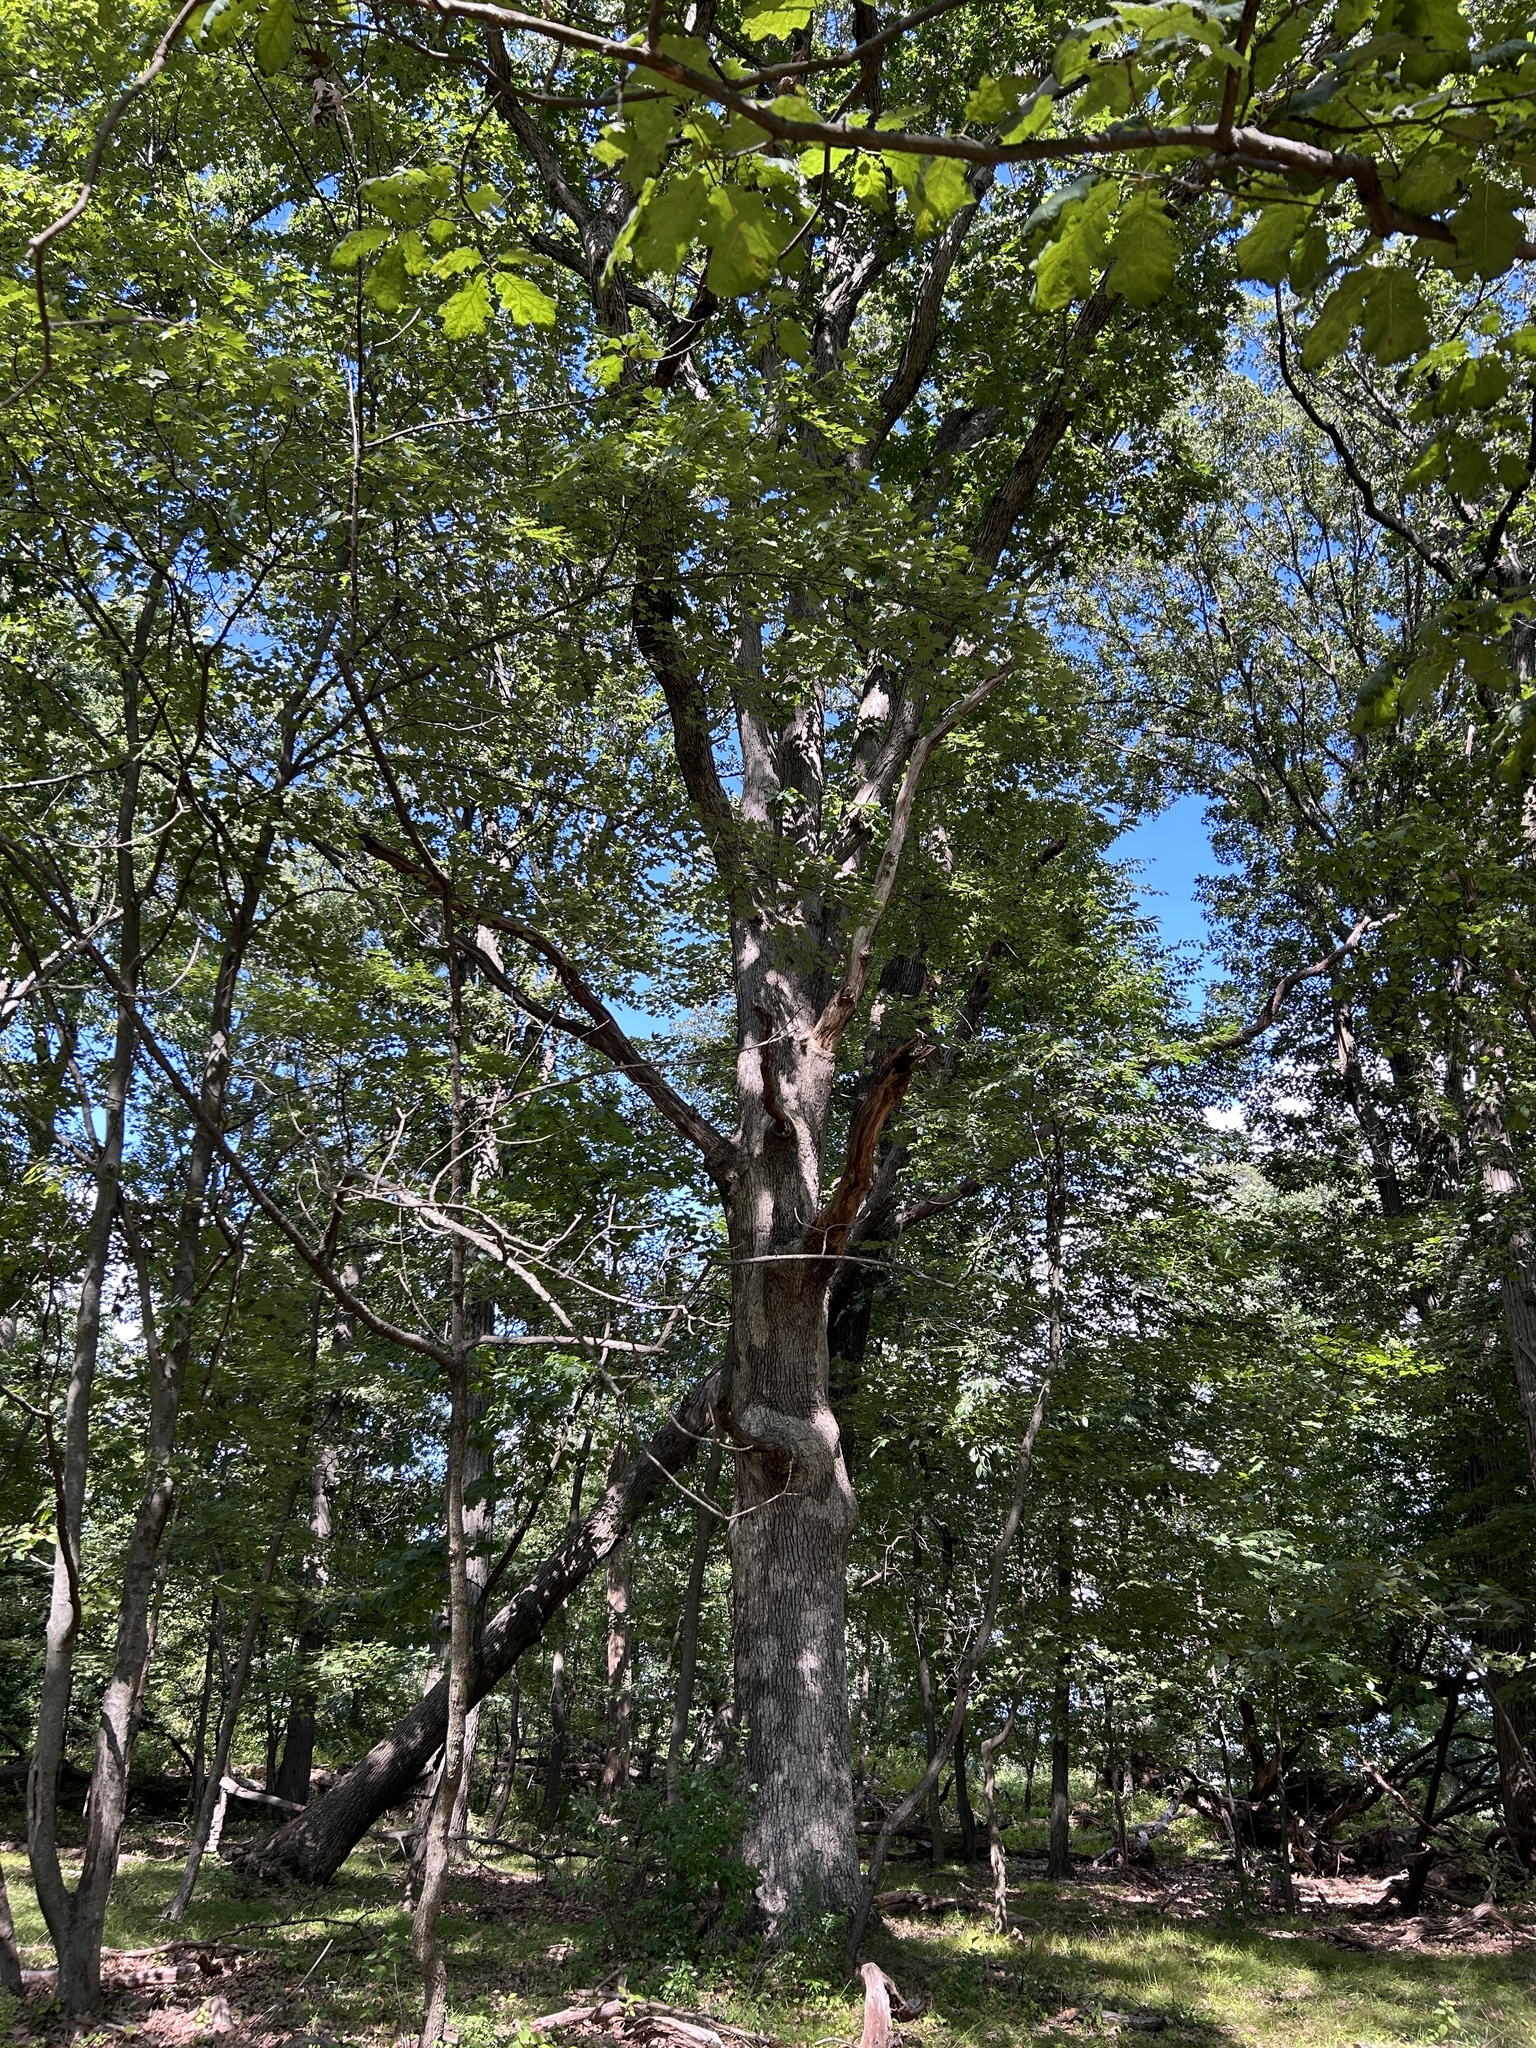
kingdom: Plantae
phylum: Tracheophyta
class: Magnoliopsida
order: Fagales
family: Fagaceae
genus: Quercus
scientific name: Quercus alba
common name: White oak
